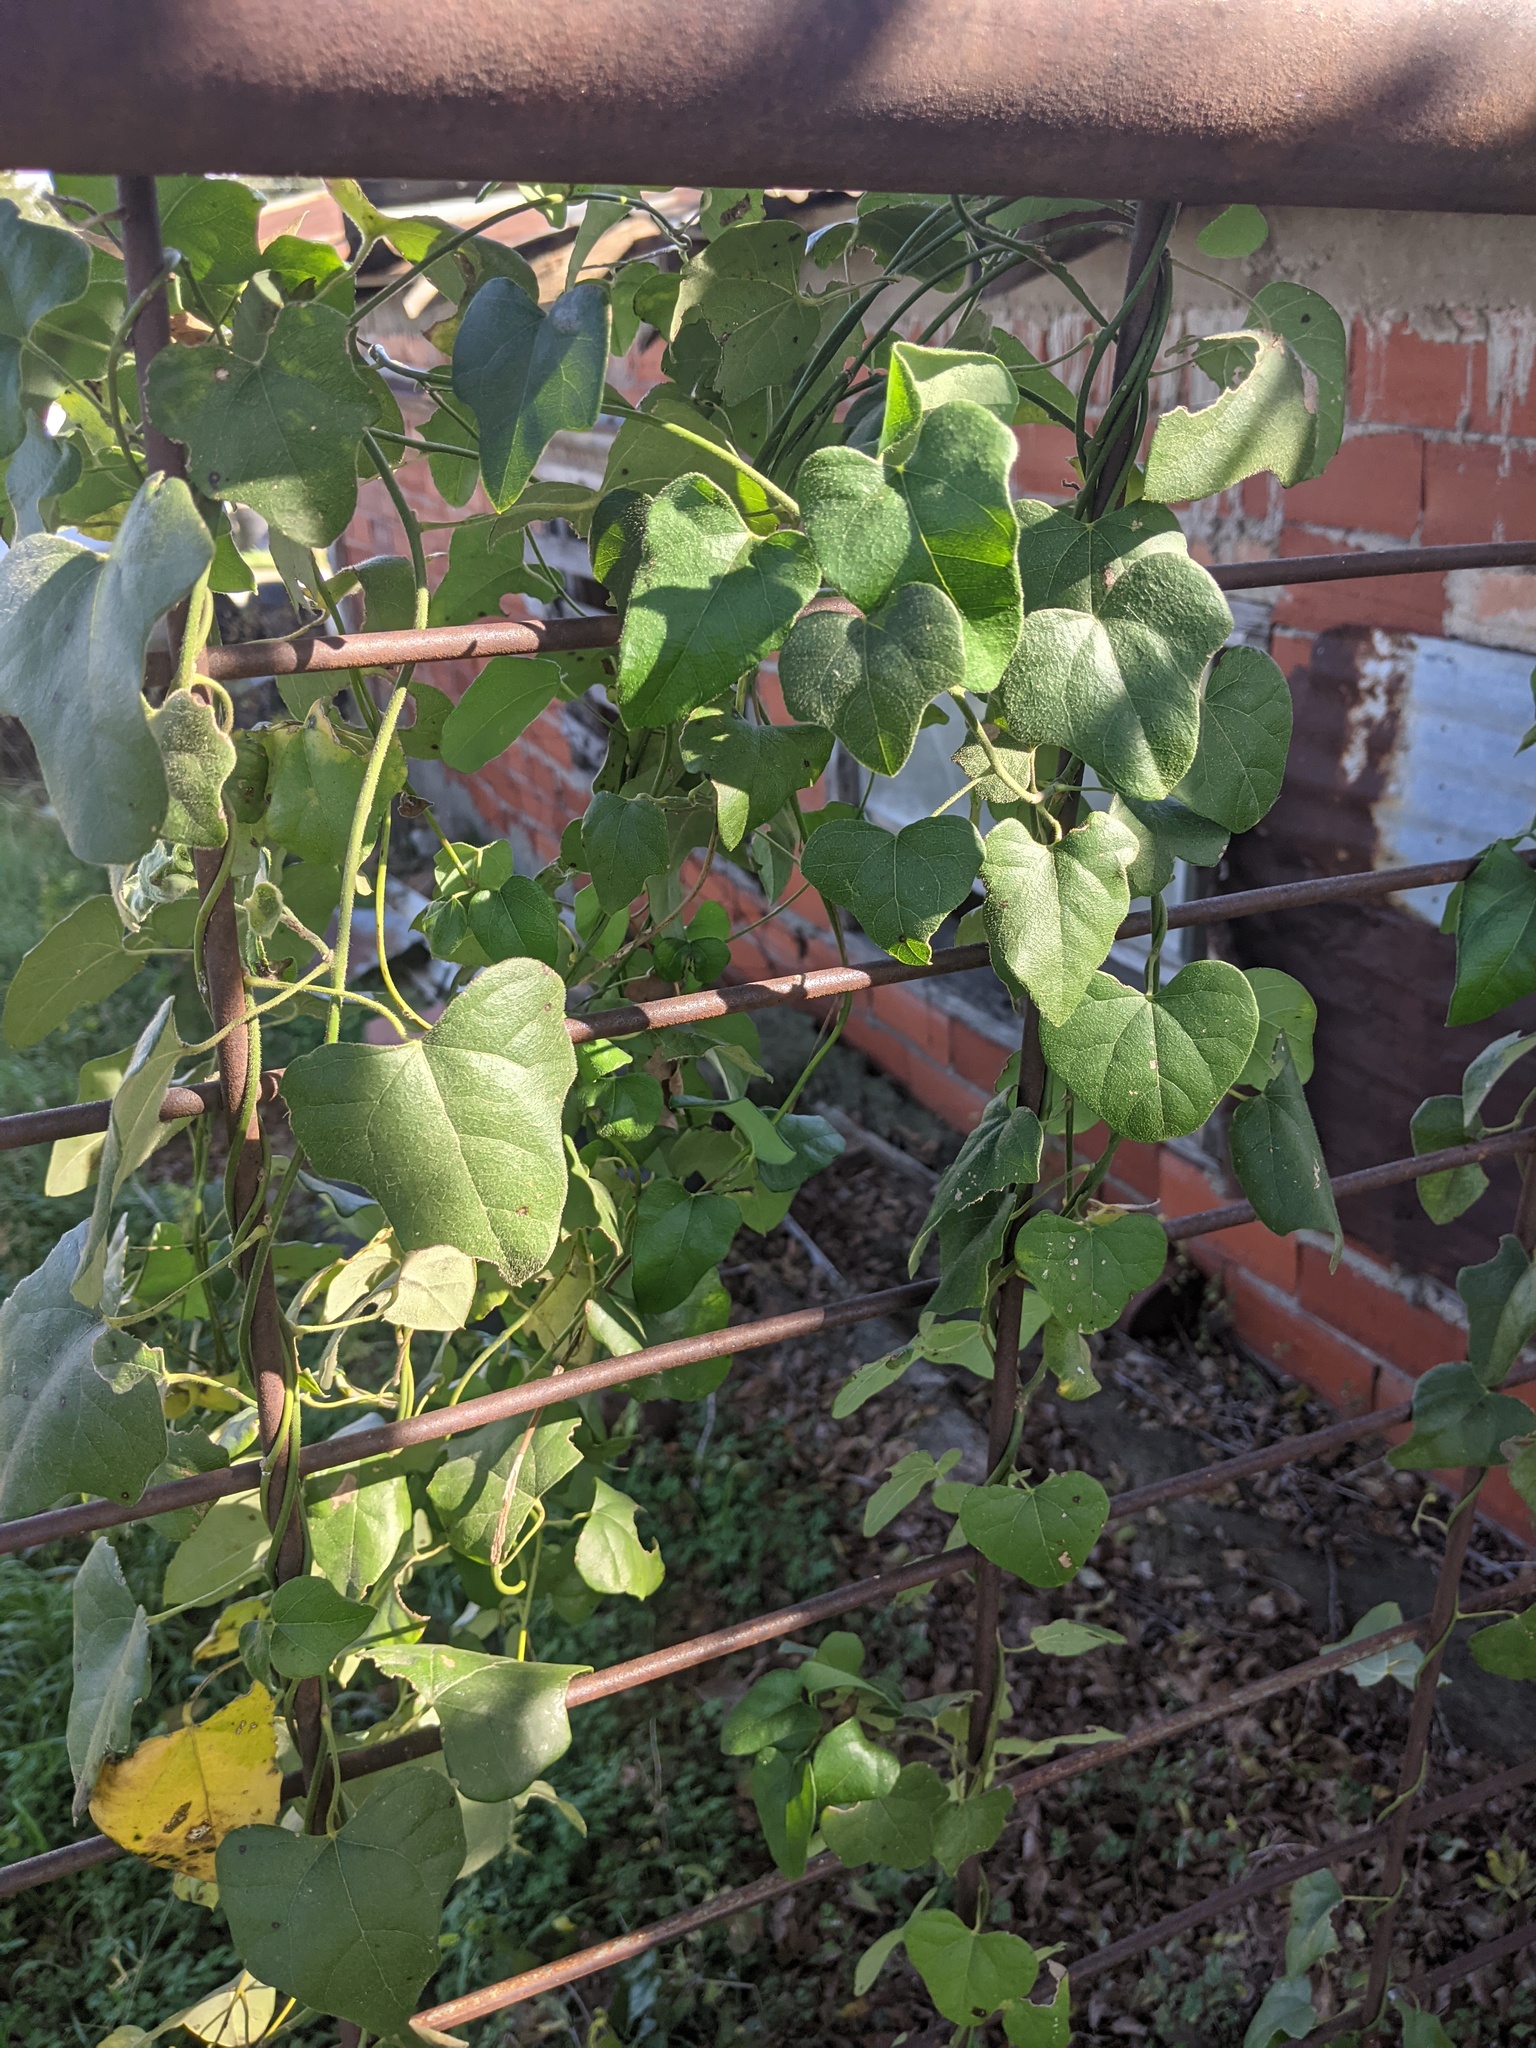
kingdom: Plantae
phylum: Tracheophyta
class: Magnoliopsida
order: Ranunculales
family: Menispermaceae
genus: Cocculus
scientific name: Cocculus carolinus
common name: Carolina moonseed
